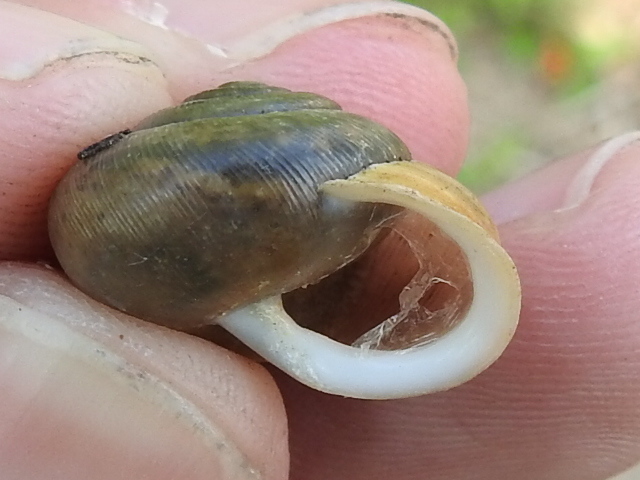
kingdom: Animalia
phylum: Mollusca
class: Gastropoda
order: Stylommatophora
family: Polygyridae
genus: Patera
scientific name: Patera roemeri
